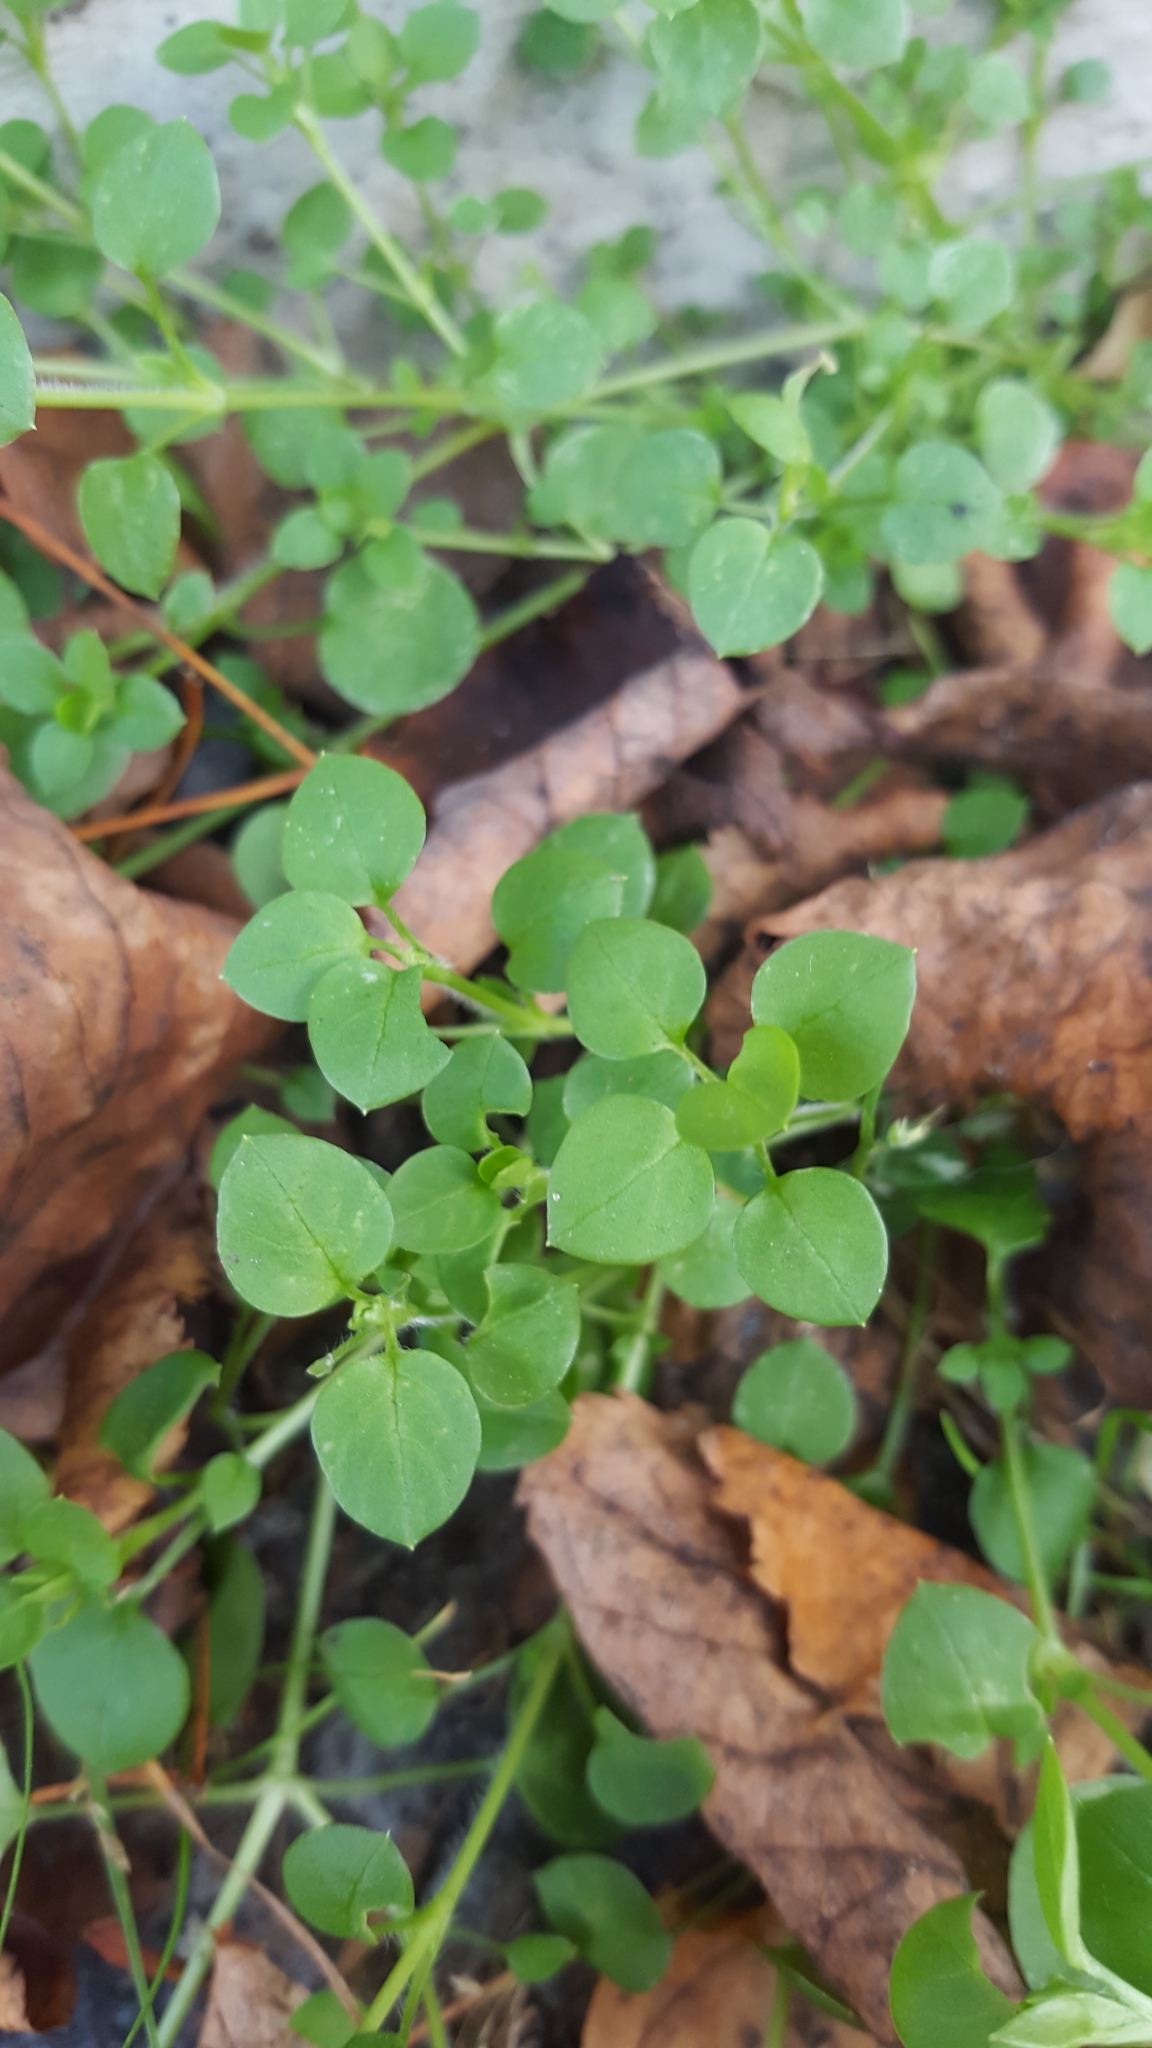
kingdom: Plantae
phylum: Tracheophyta
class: Magnoliopsida
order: Caryophyllales
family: Caryophyllaceae
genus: Stellaria
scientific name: Stellaria media
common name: Common chickweed
